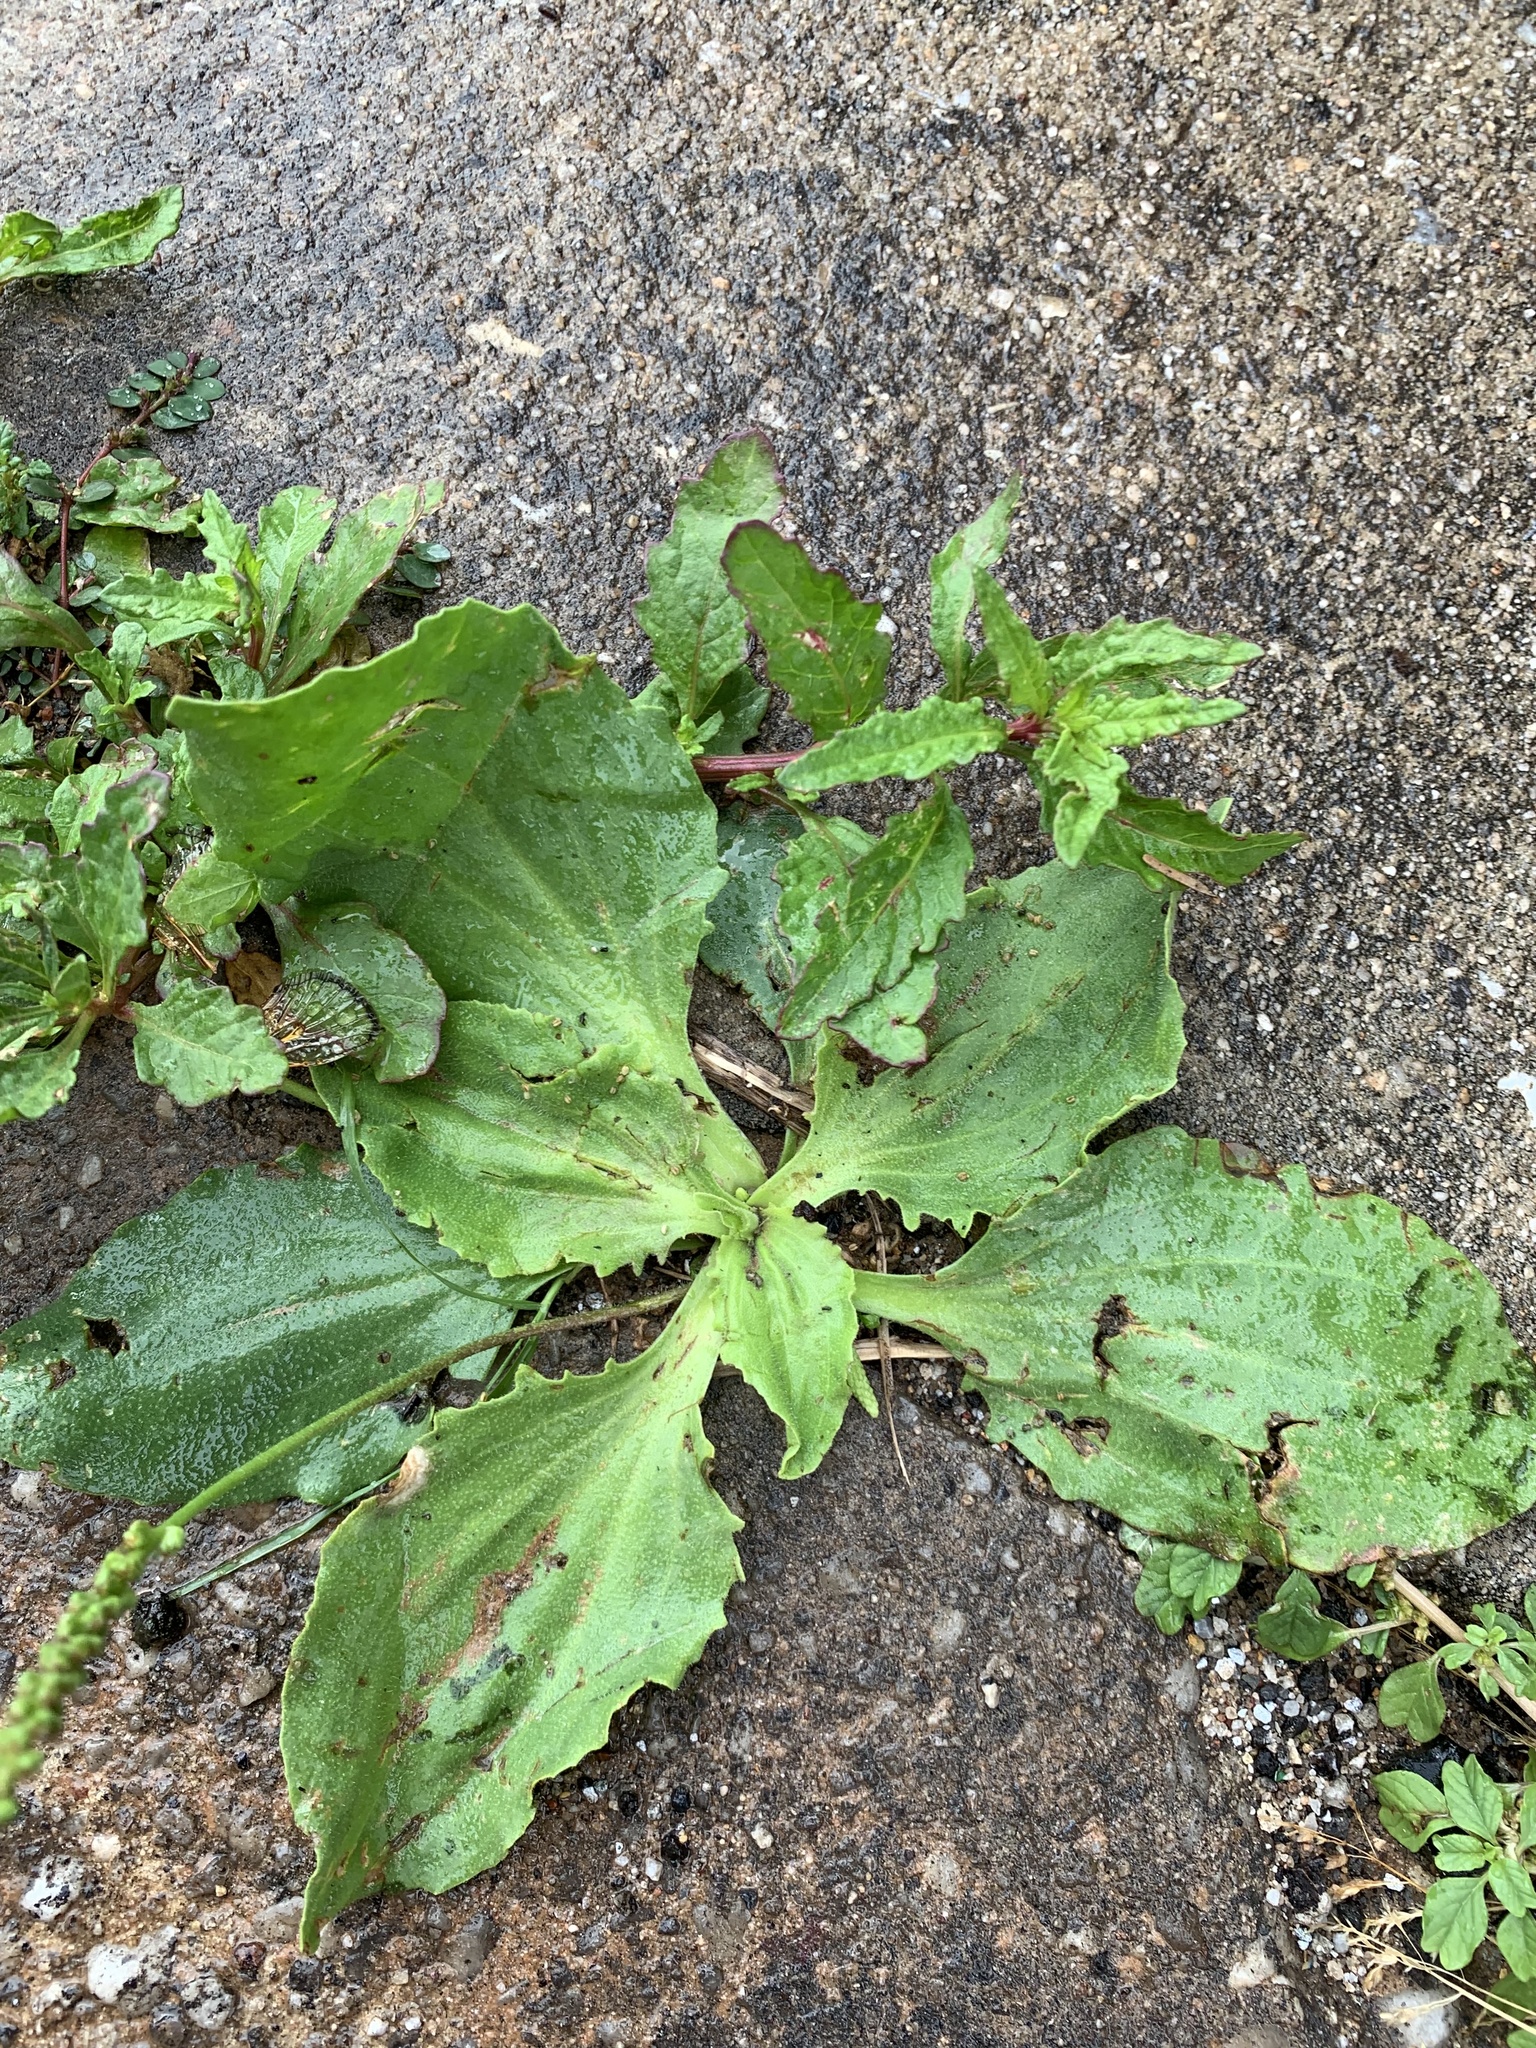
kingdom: Plantae
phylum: Tracheophyta
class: Magnoliopsida
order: Lamiales
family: Plantaginaceae
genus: Plantago
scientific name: Plantago major
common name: Common plantain
